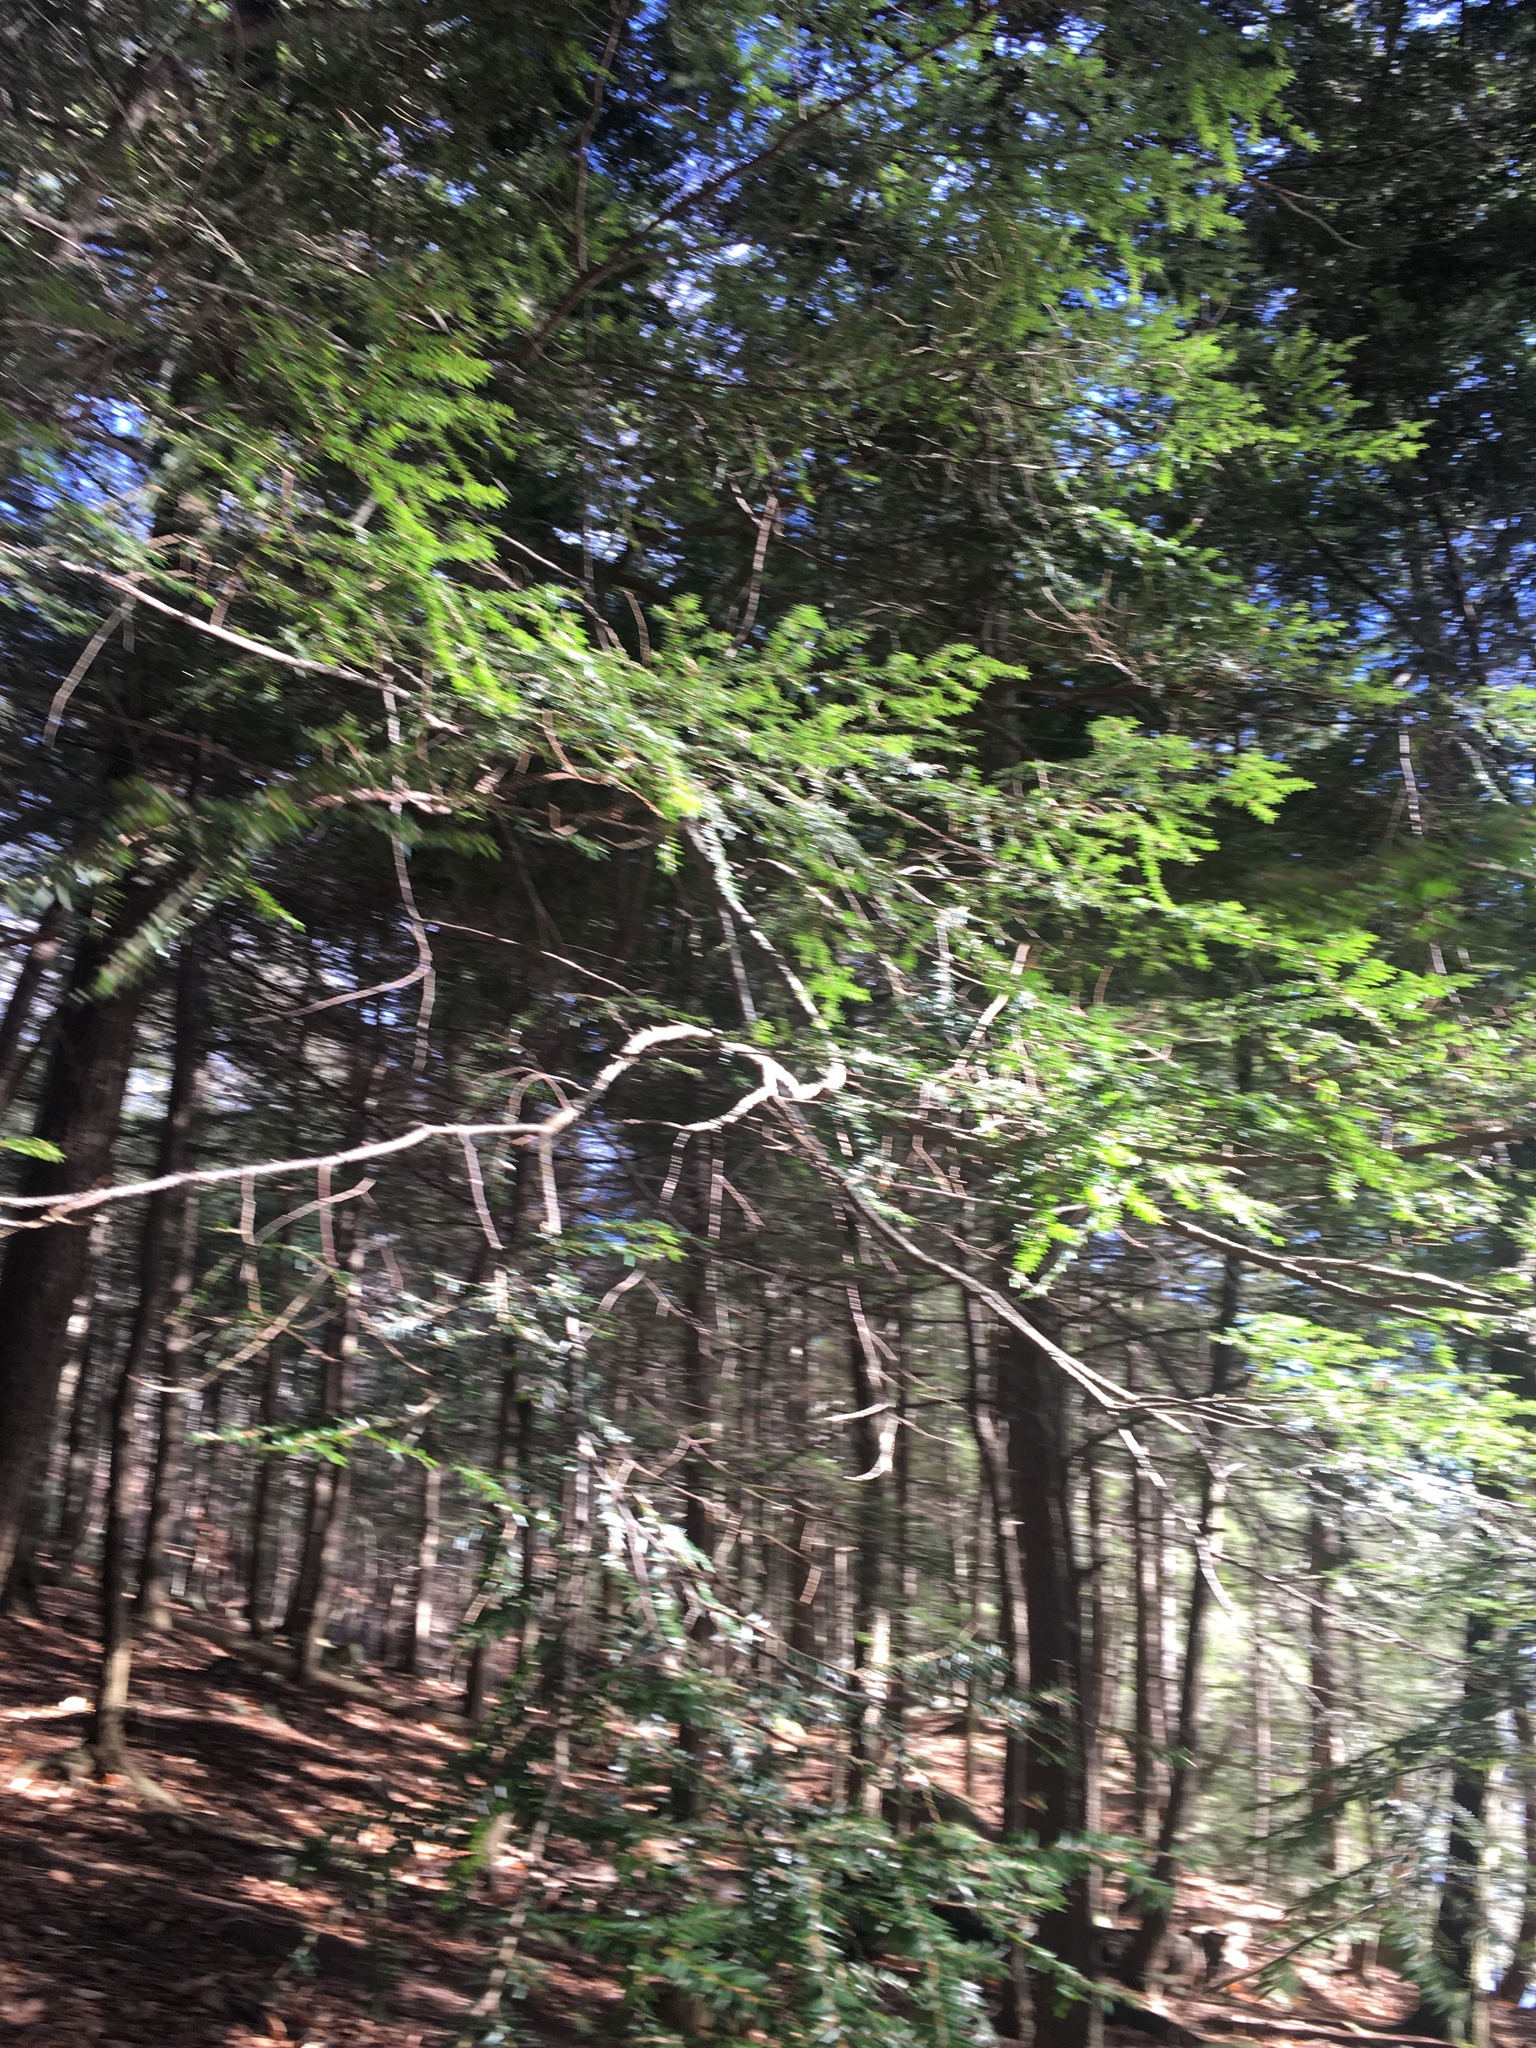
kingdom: Plantae
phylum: Tracheophyta
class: Pinopsida
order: Pinales
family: Pinaceae
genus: Tsuga
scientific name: Tsuga canadensis
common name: Eastern hemlock
